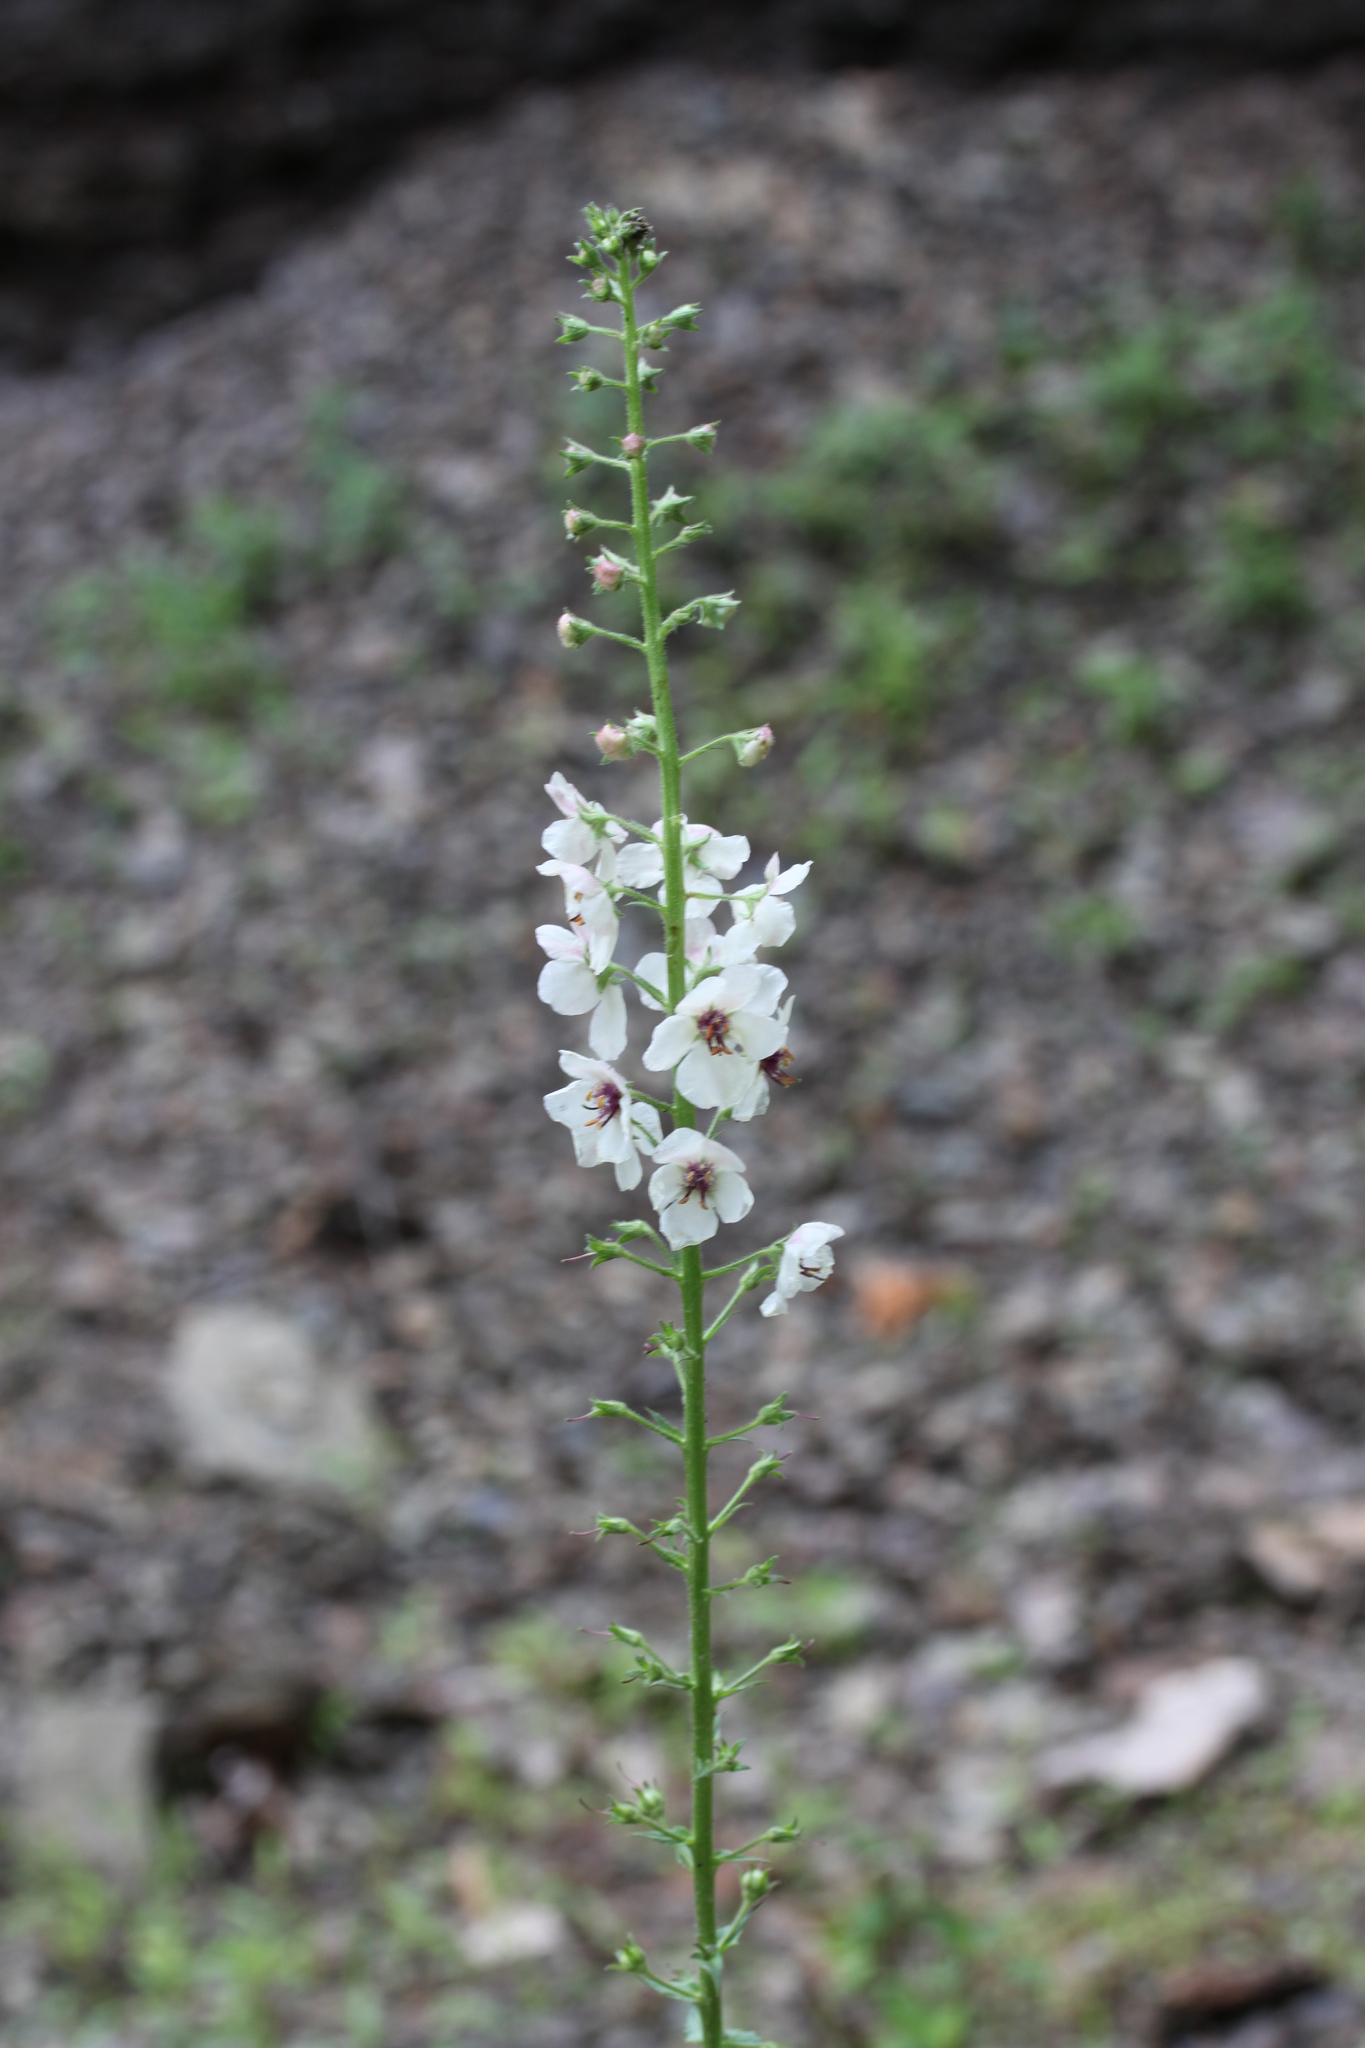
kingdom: Plantae
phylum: Tracheophyta
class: Magnoliopsida
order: Lamiales
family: Scrophulariaceae
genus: Verbascum
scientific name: Verbascum blattaria
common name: Moth mullein
